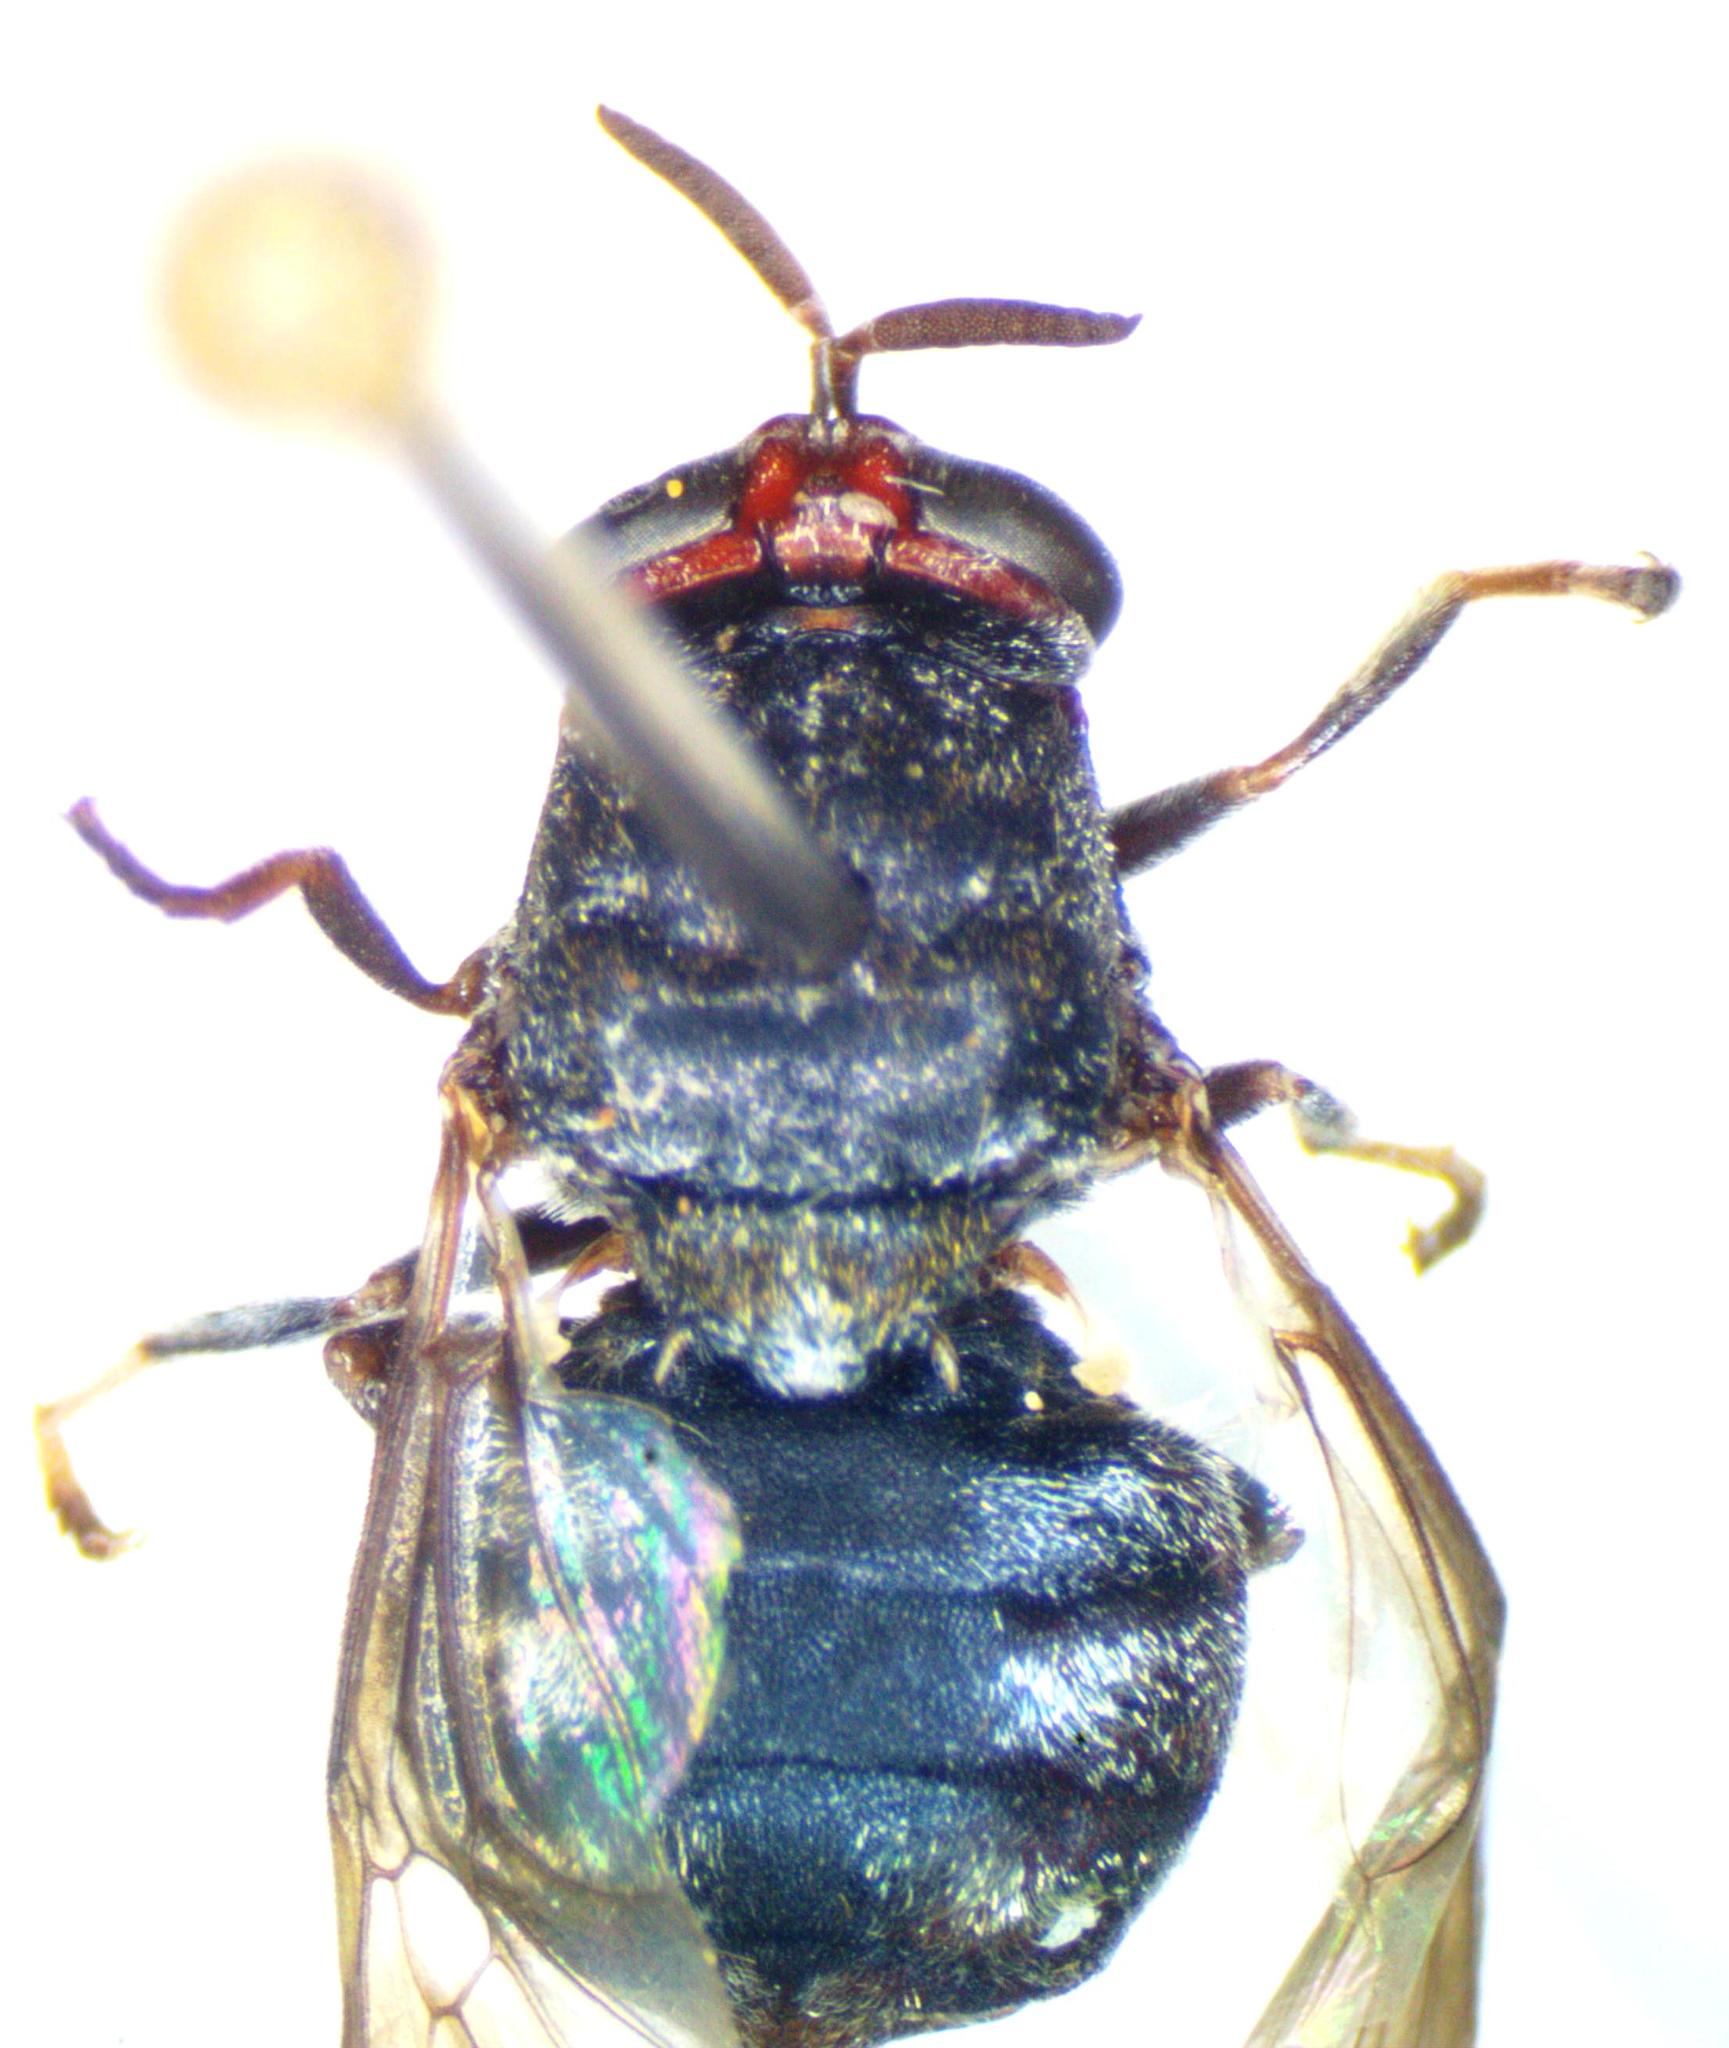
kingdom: Animalia
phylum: Arthropoda
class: Insecta
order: Diptera
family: Stratiomyidae
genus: Dicyphoma
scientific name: Dicyphoma schaefferi
